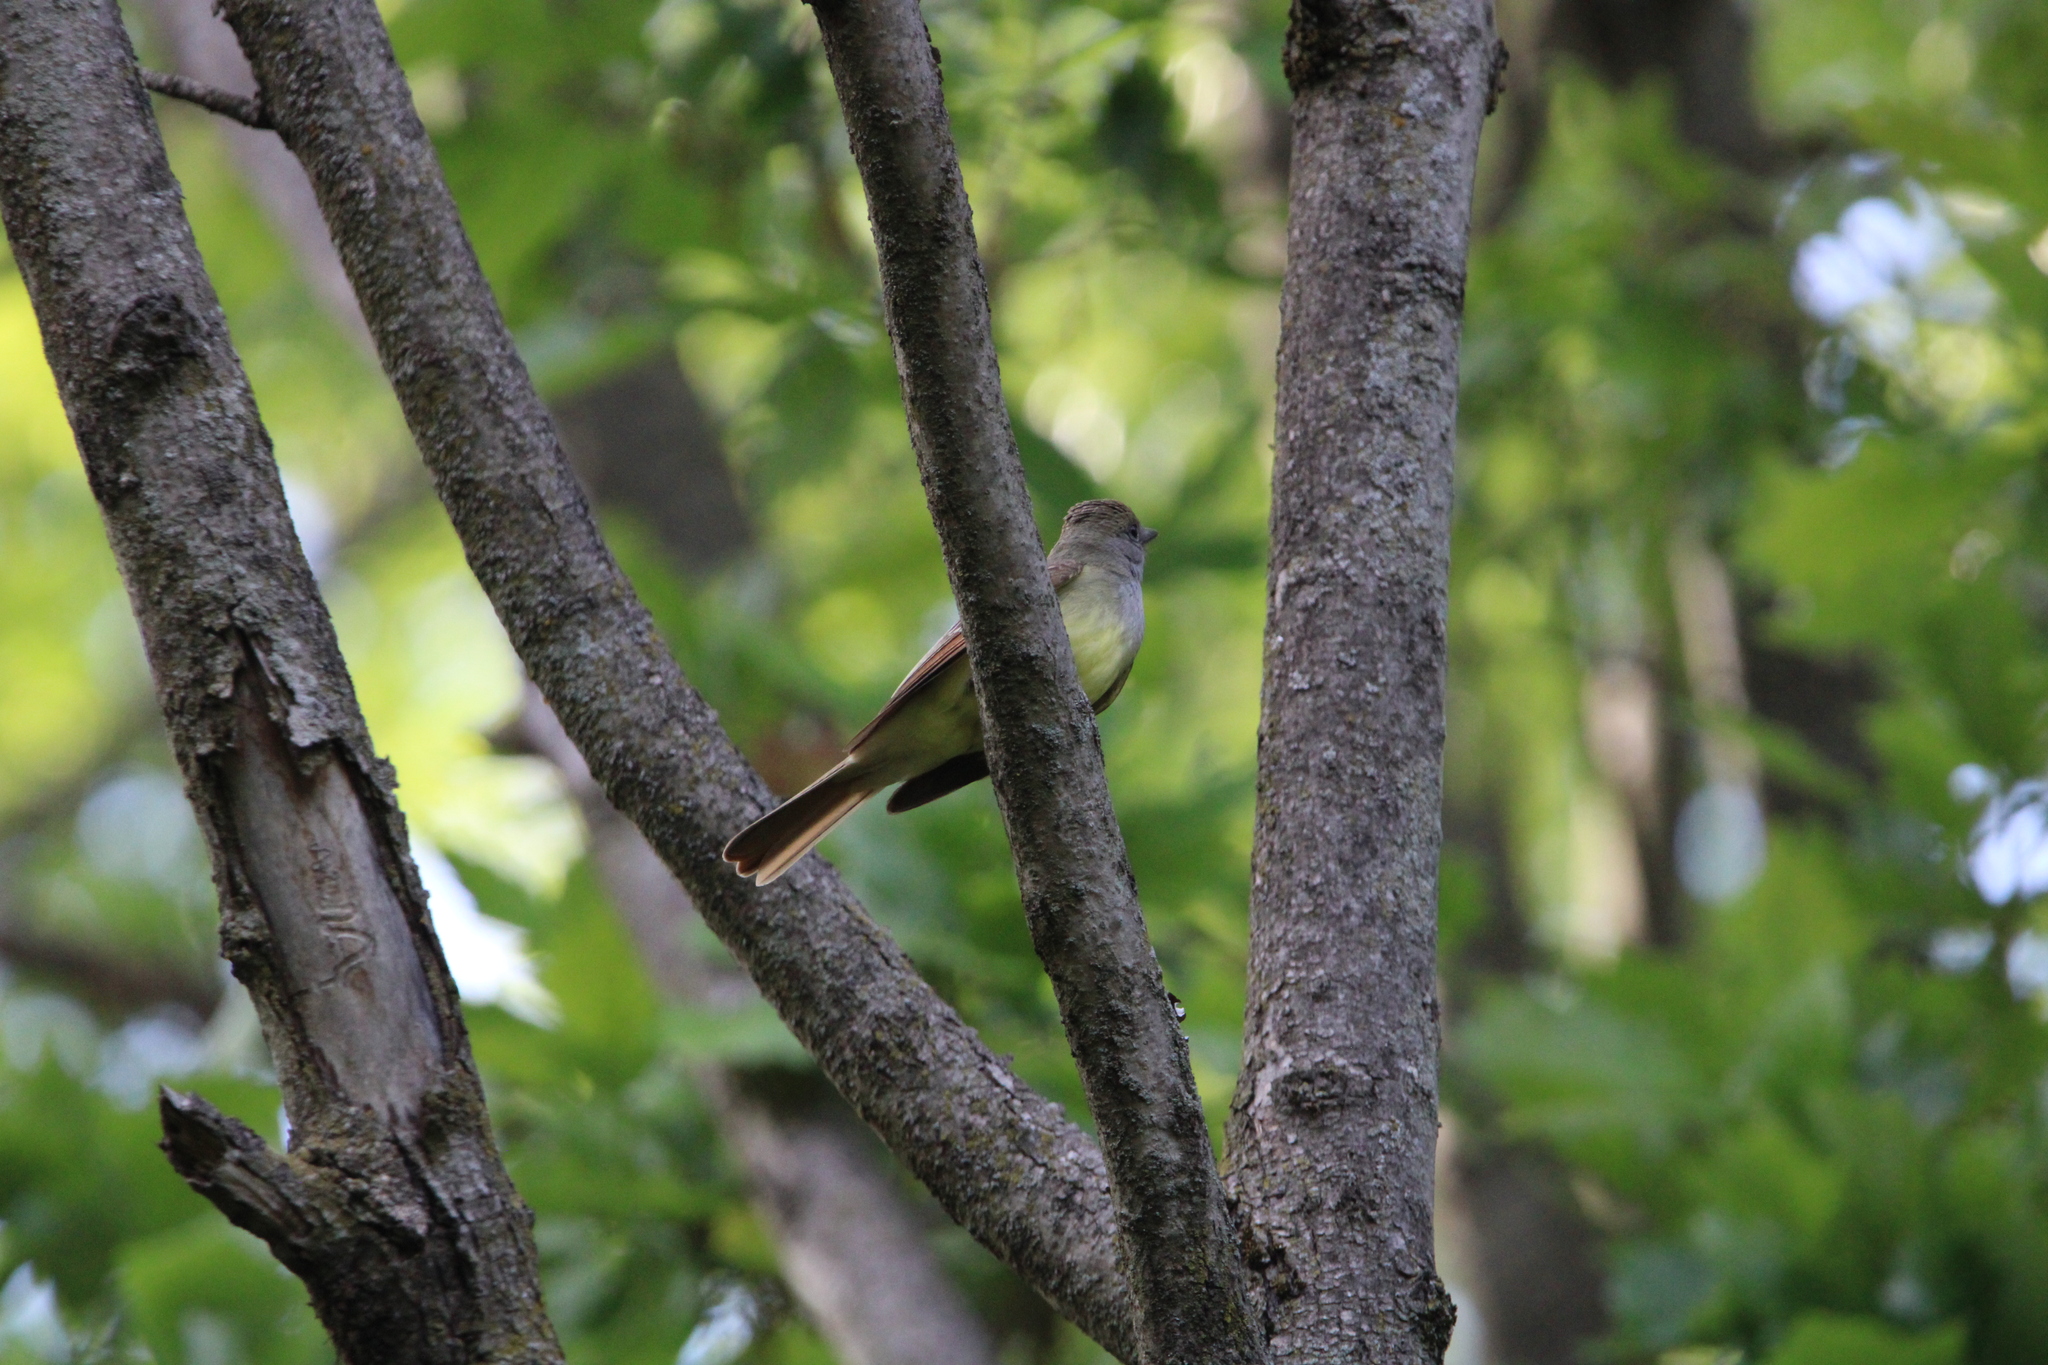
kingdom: Animalia
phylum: Chordata
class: Aves
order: Passeriformes
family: Tyrannidae
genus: Myiarchus
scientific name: Myiarchus crinitus
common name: Great crested flycatcher
